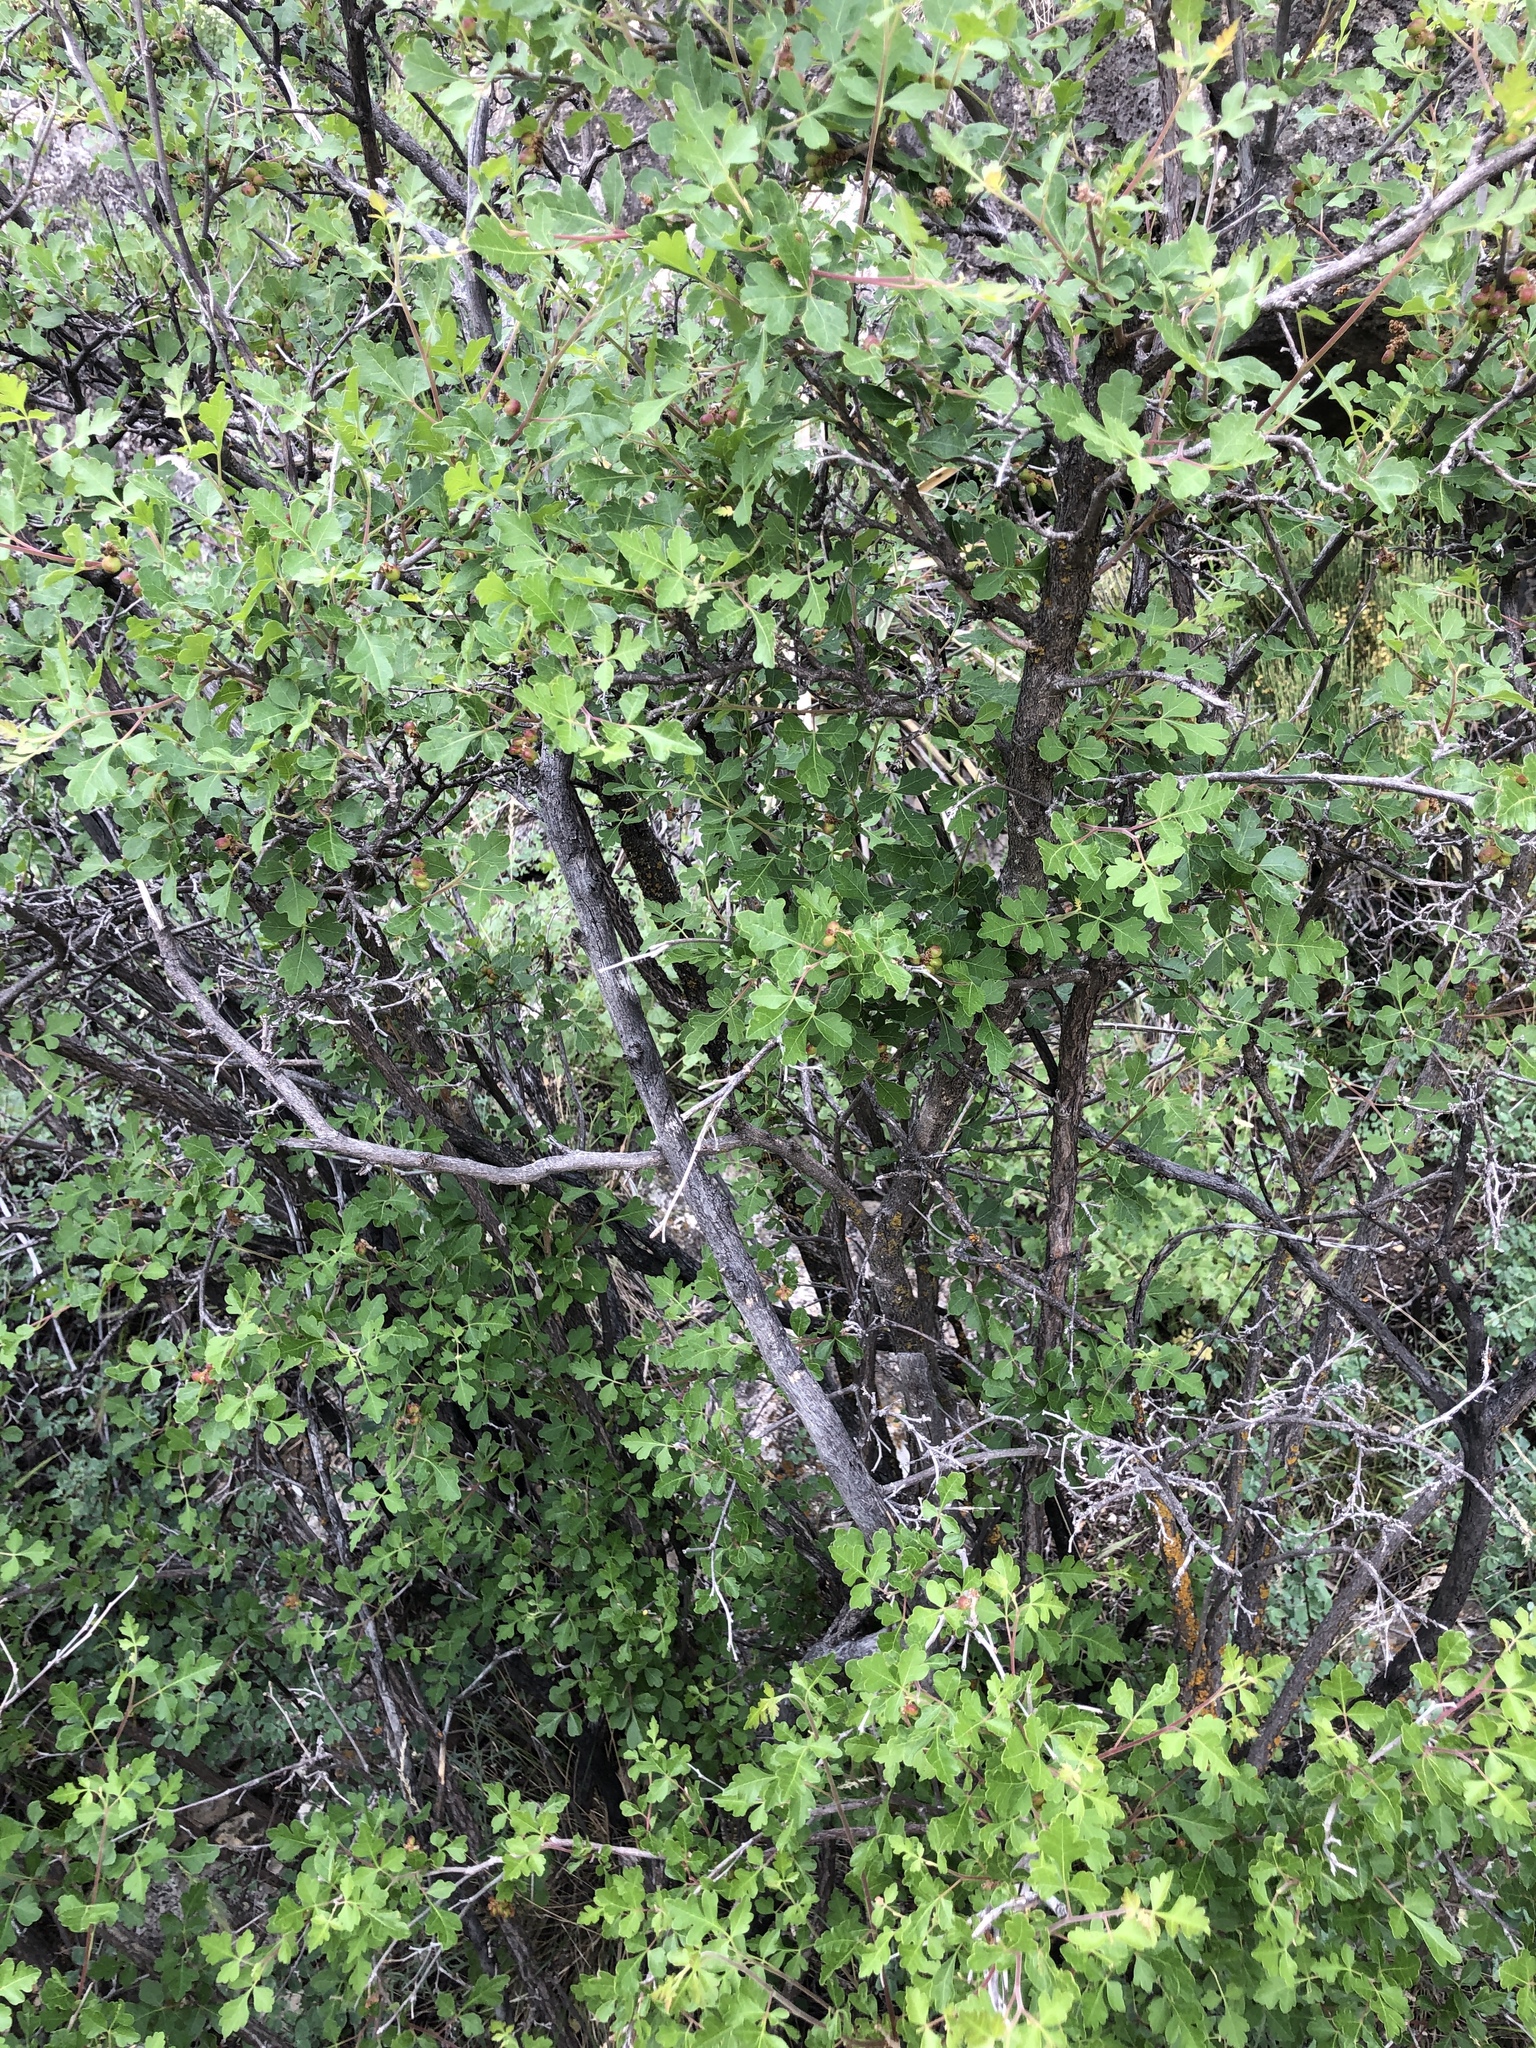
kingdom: Plantae
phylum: Tracheophyta
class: Magnoliopsida
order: Sapindales
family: Anacardiaceae
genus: Rhus
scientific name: Rhus aromatica
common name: Aromatic sumac
